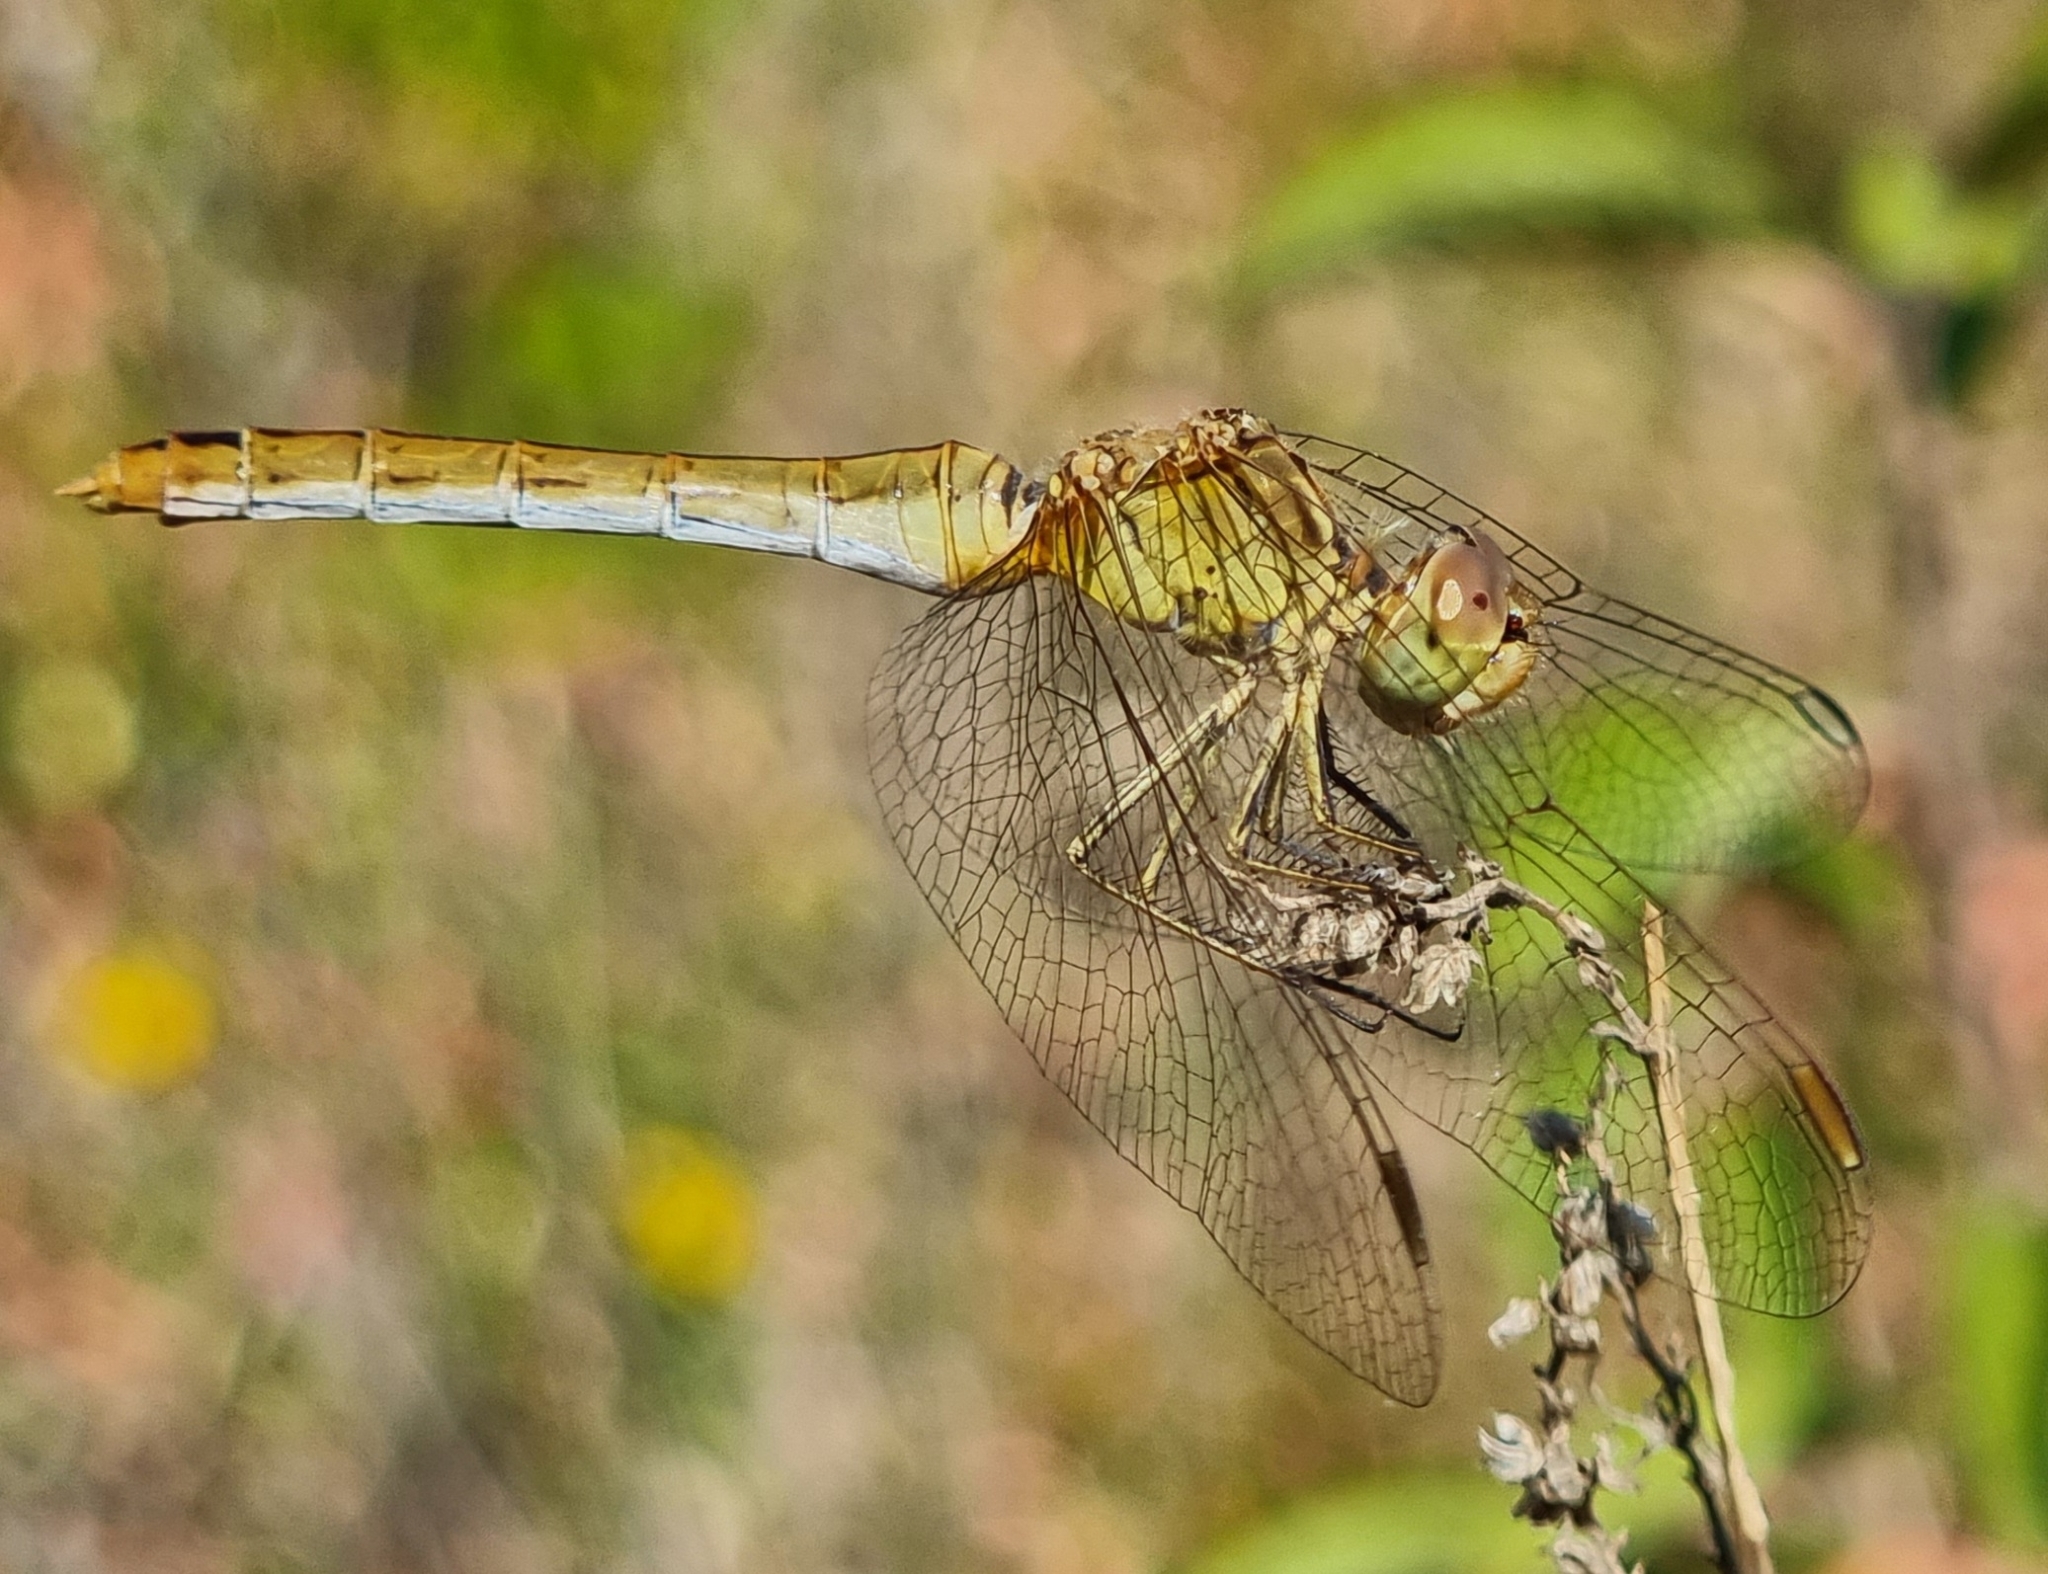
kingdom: Animalia
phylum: Arthropoda
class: Insecta
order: Odonata
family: Libellulidae
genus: Sympetrum
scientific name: Sympetrum meridionale
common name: Southern darter
